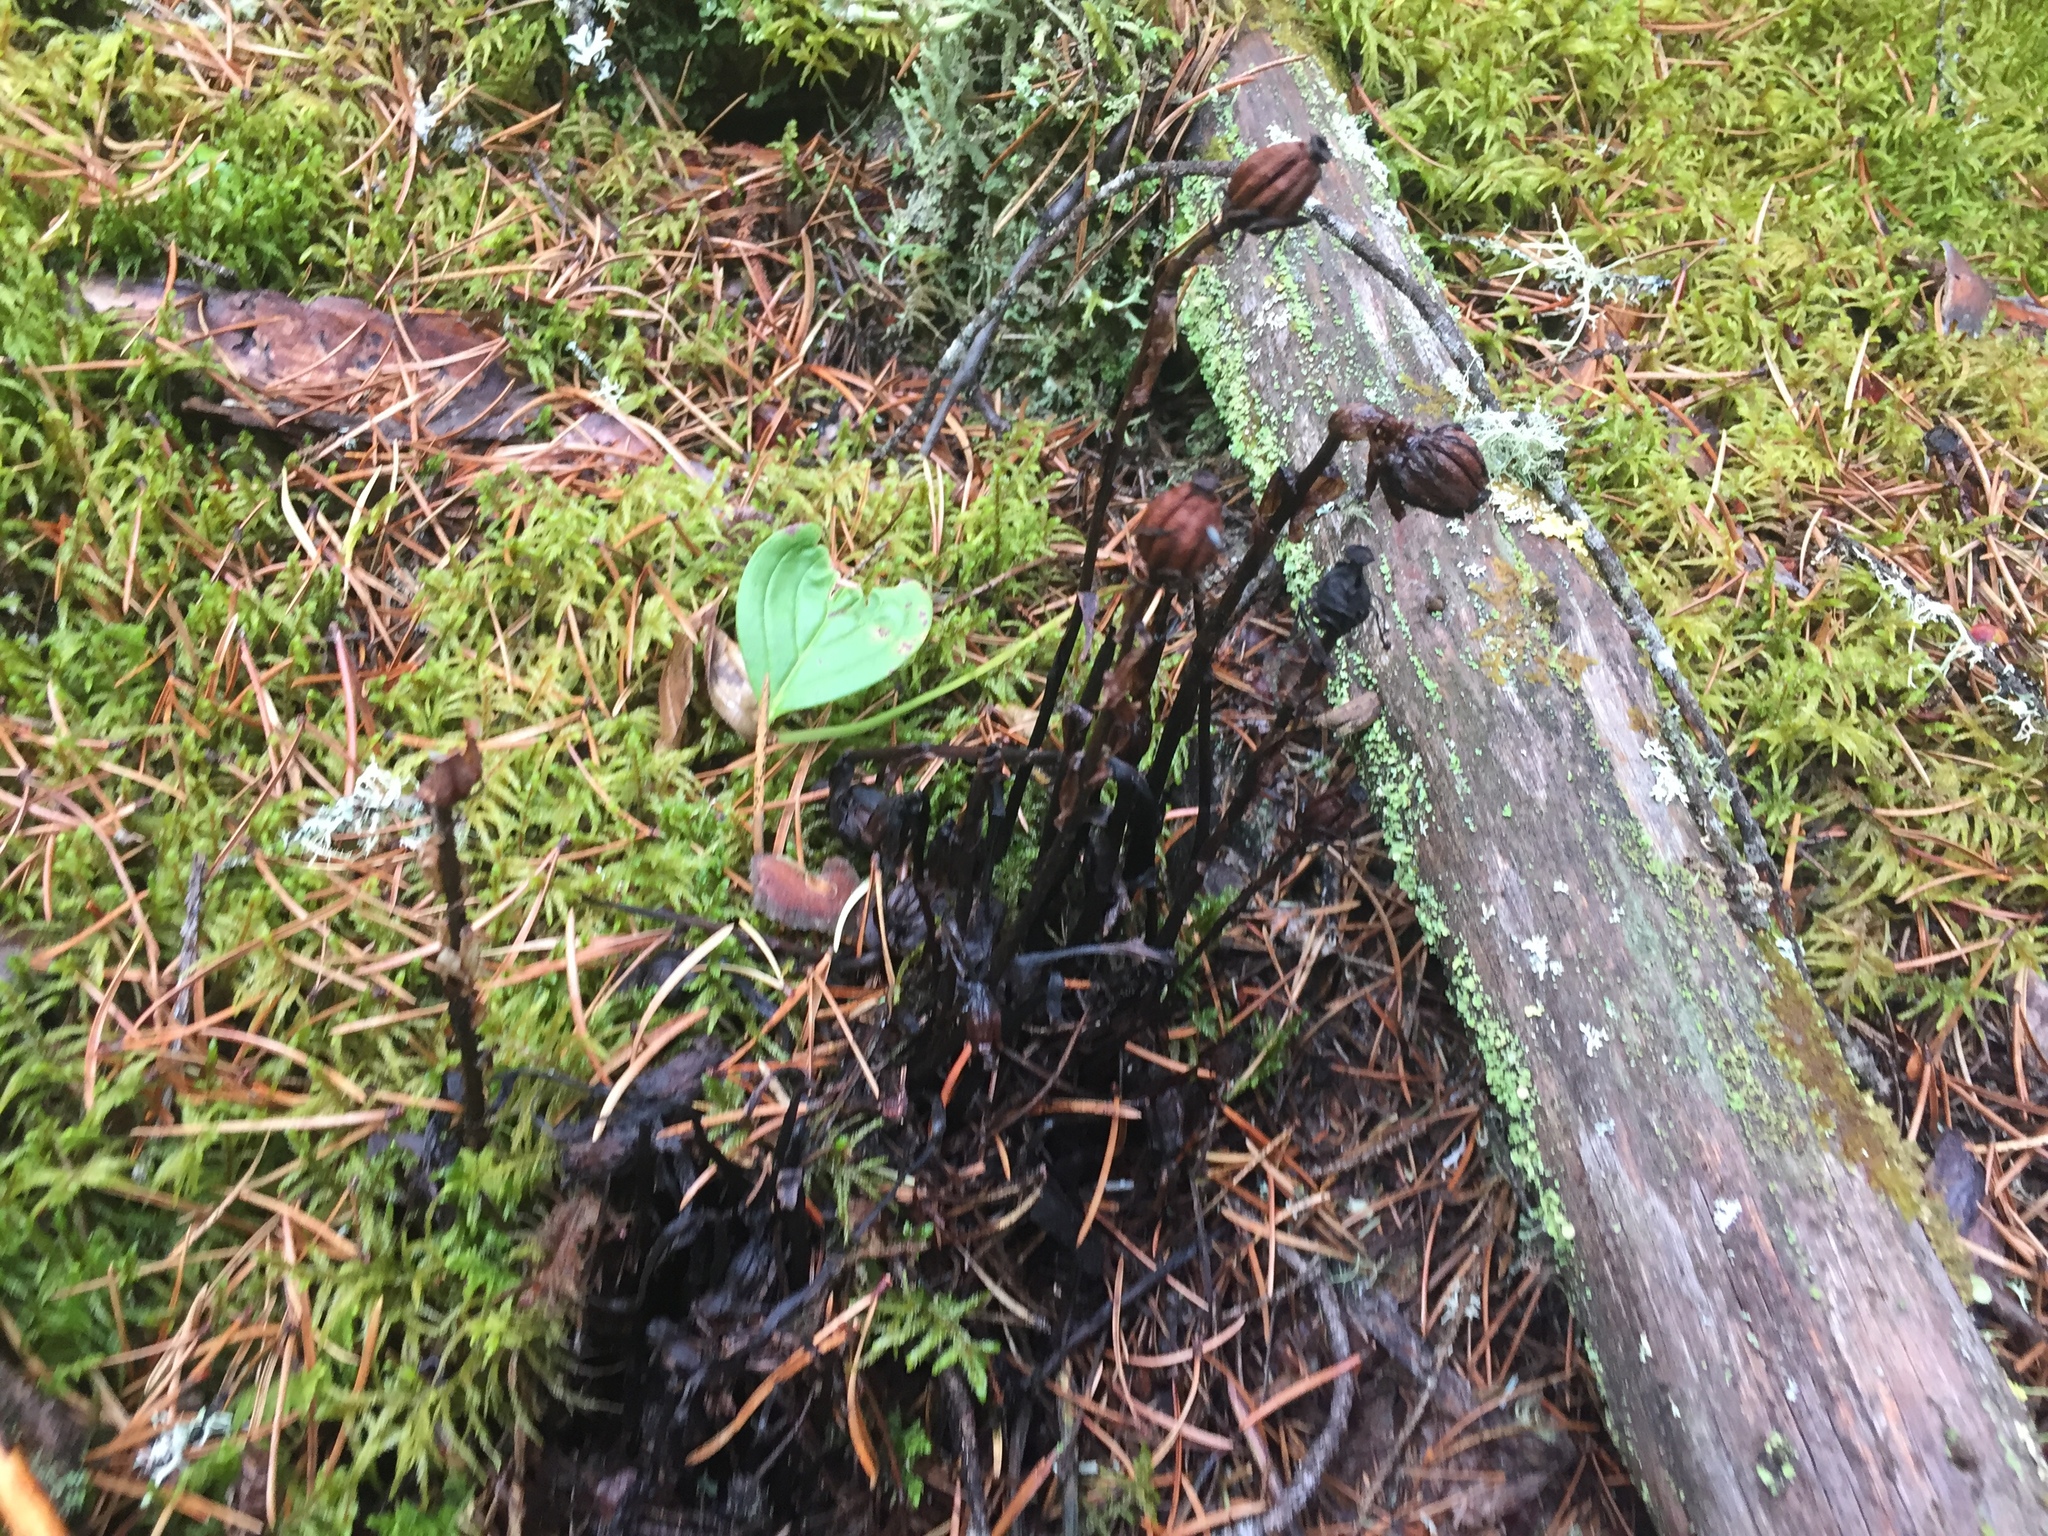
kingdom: Plantae
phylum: Tracheophyta
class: Magnoliopsida
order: Ericales
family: Ericaceae
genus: Monotropa
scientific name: Monotropa uniflora
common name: Convulsion root
